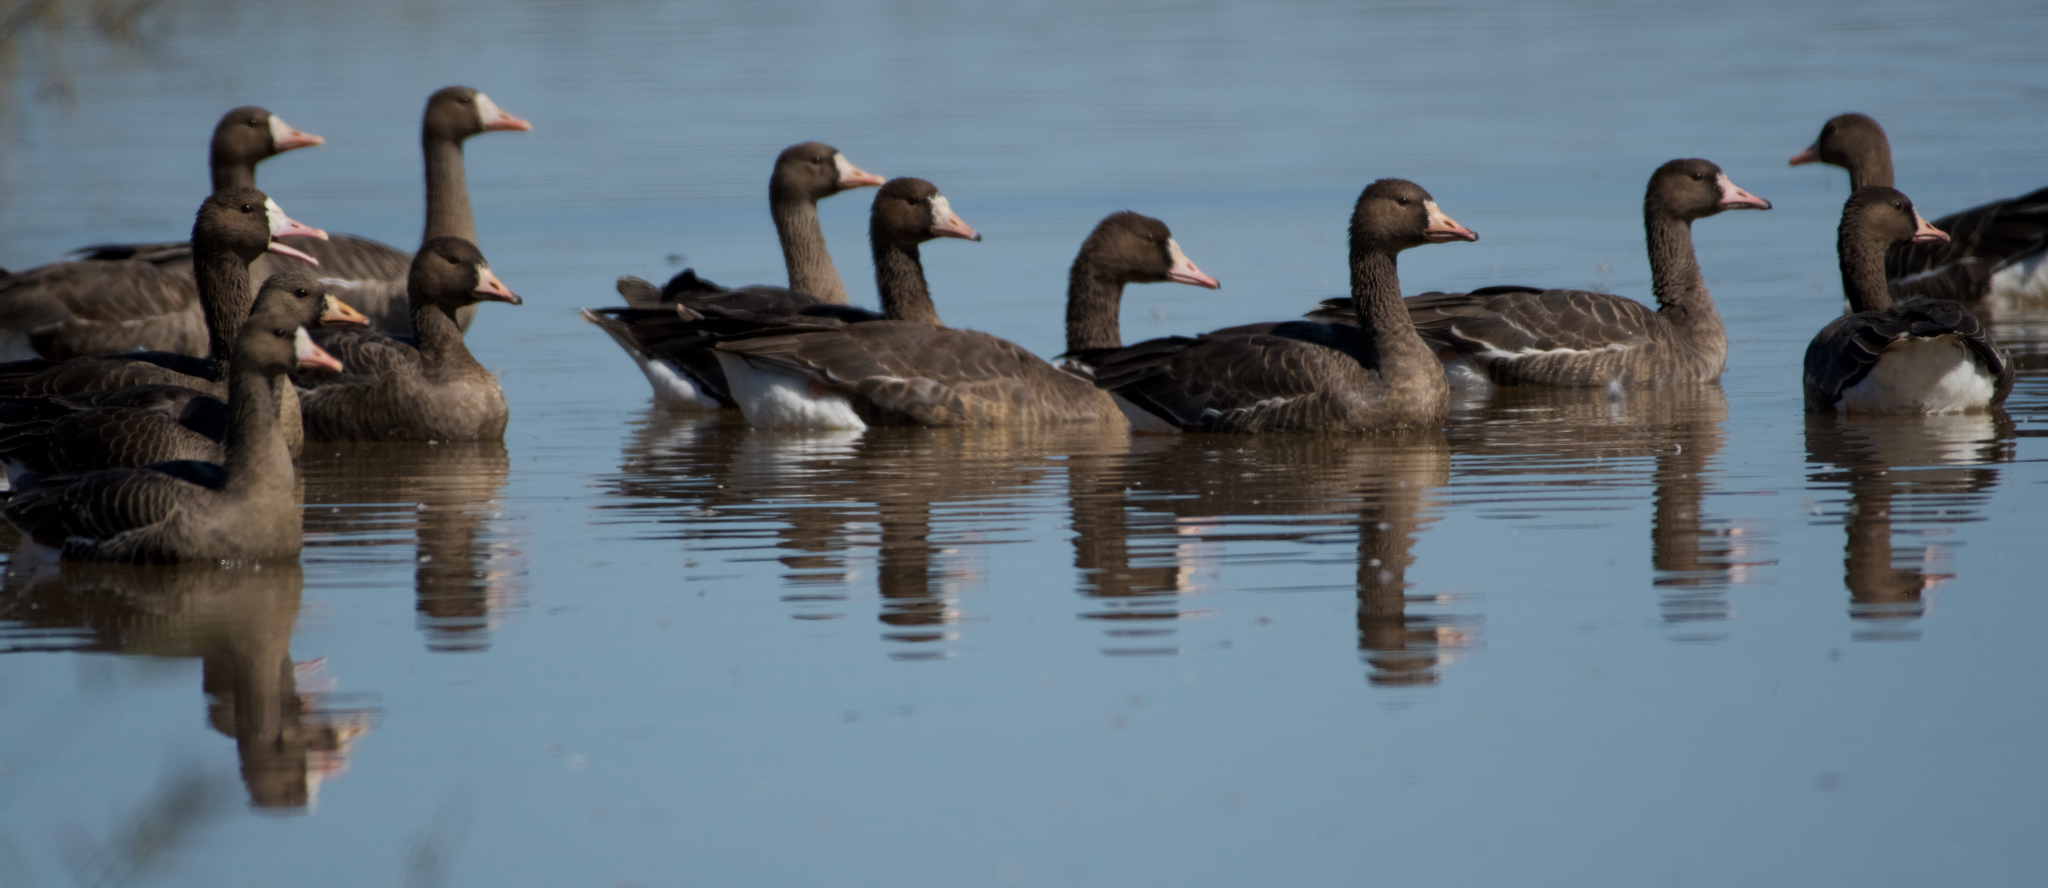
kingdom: Animalia
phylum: Chordata
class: Aves
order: Anseriformes
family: Anatidae
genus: Anser
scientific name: Anser albifrons
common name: Greater white-fronted goose
